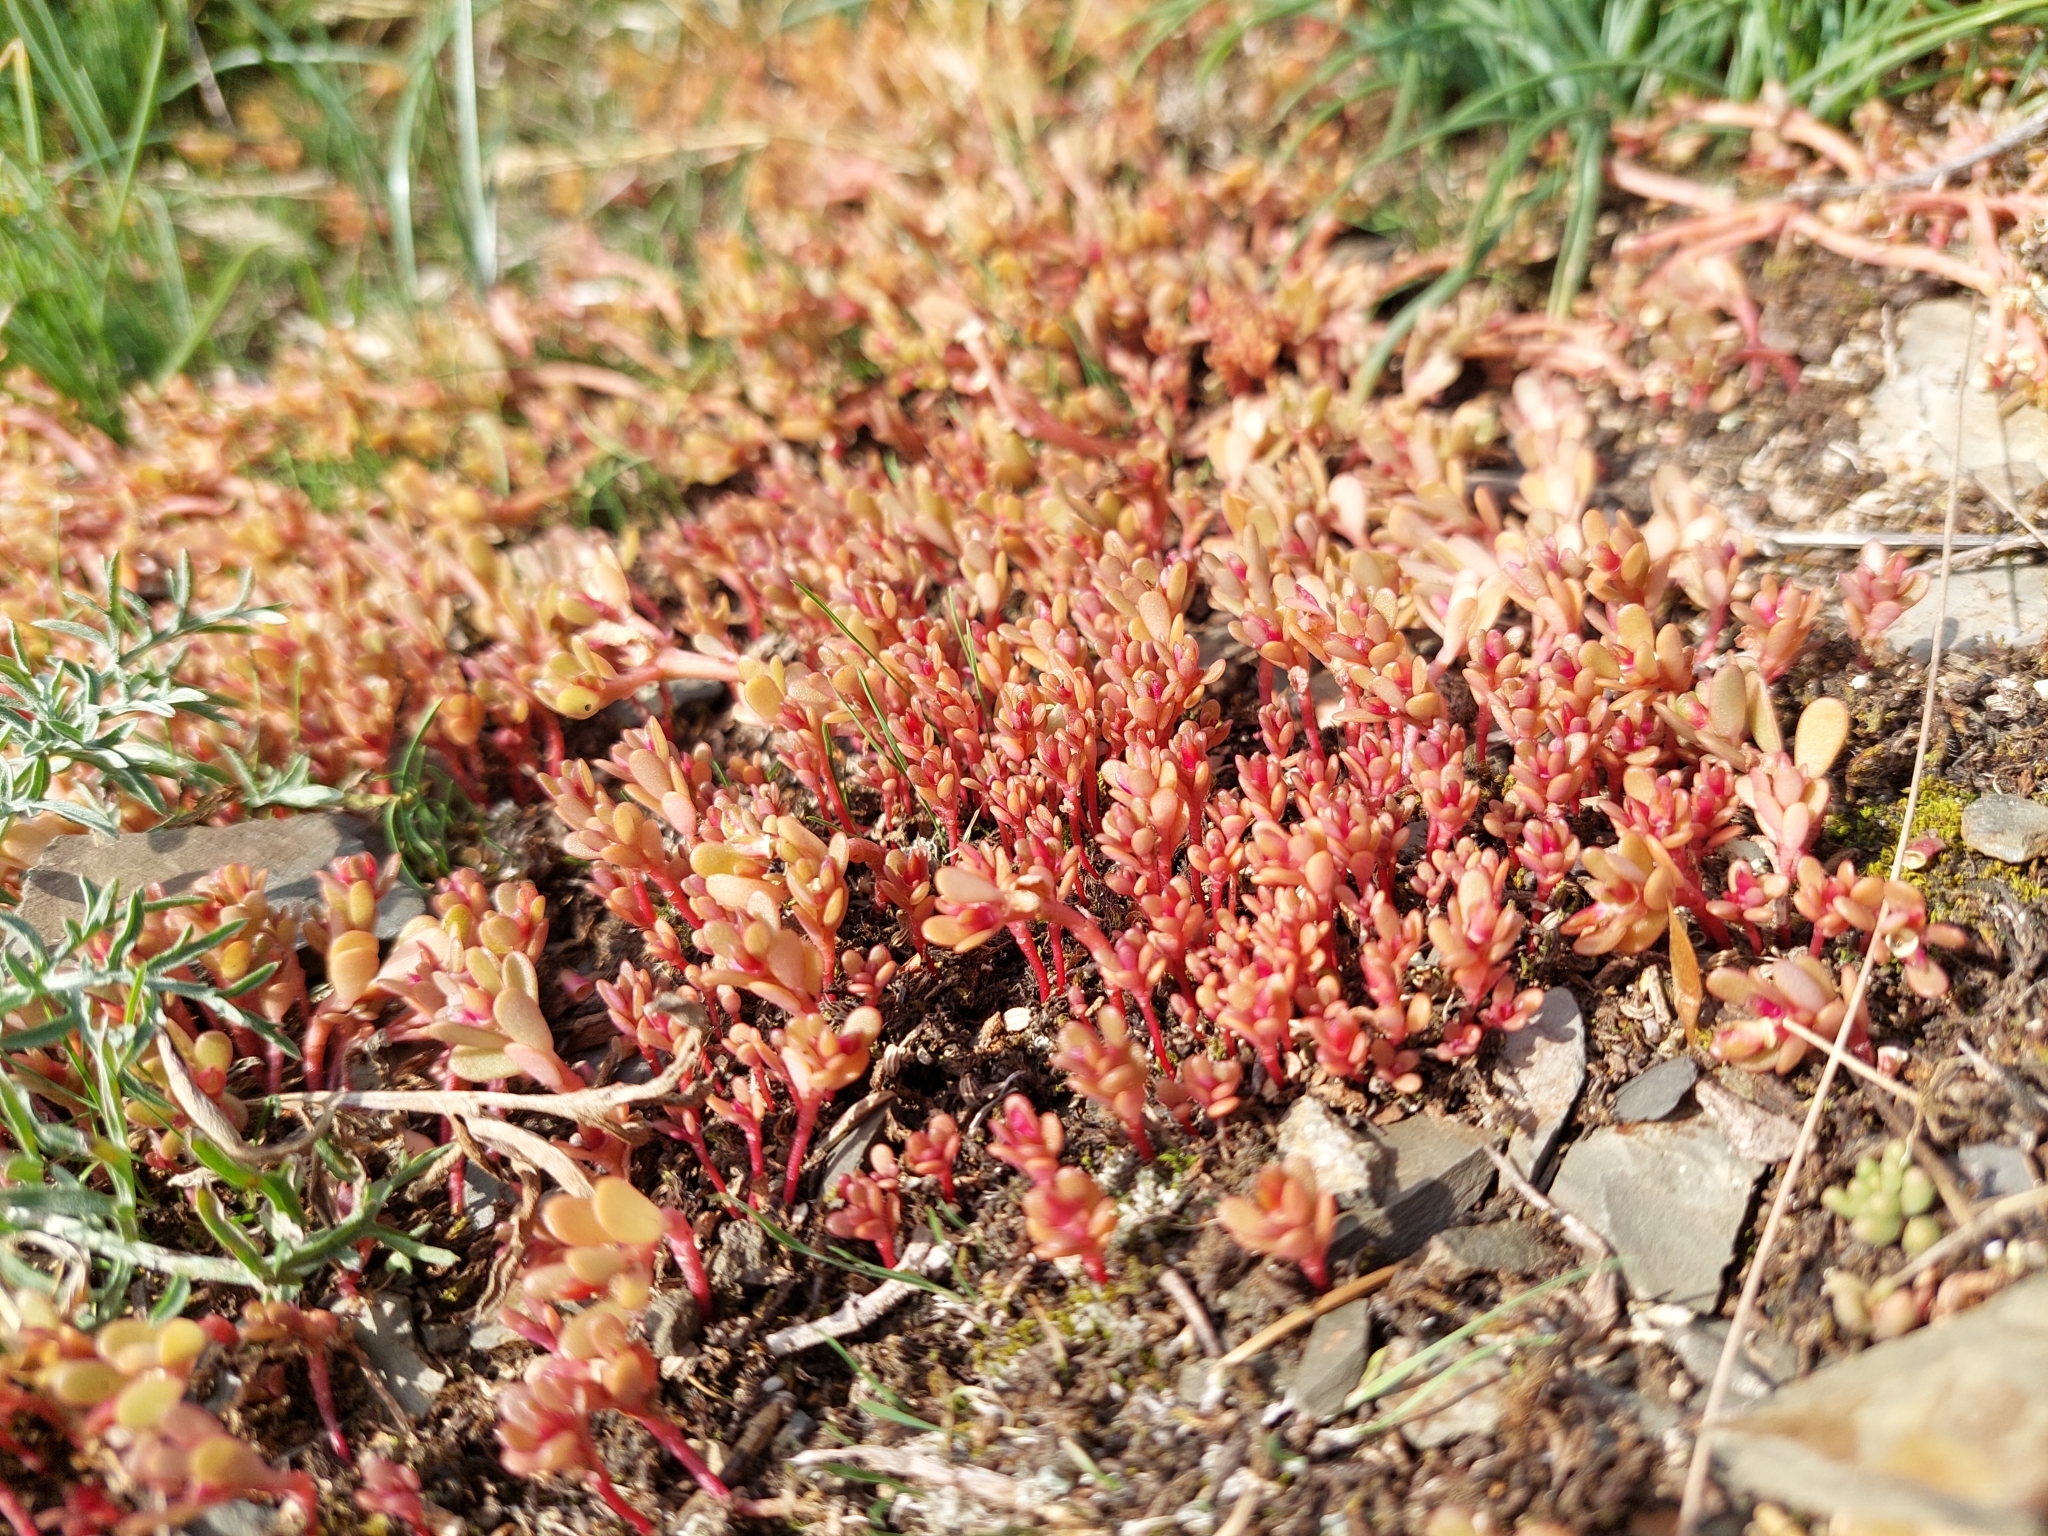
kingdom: Plantae
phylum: Tracheophyta
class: Magnoliopsida
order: Caryophyllales
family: Portulacaceae
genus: Portulaca
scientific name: Portulaca oleracea
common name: Common purslane
